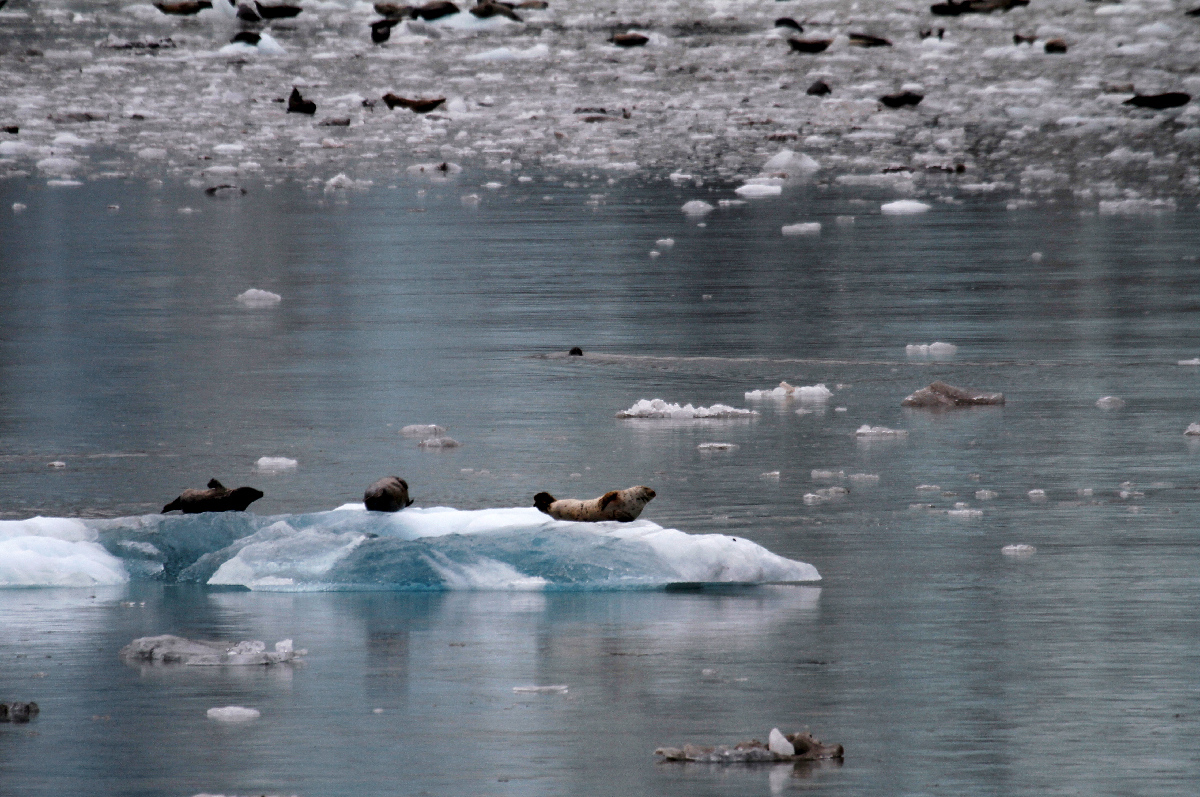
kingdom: Animalia
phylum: Chordata
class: Mammalia
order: Carnivora
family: Phocidae
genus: Phoca
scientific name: Phoca vitulina
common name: Harbor seal
